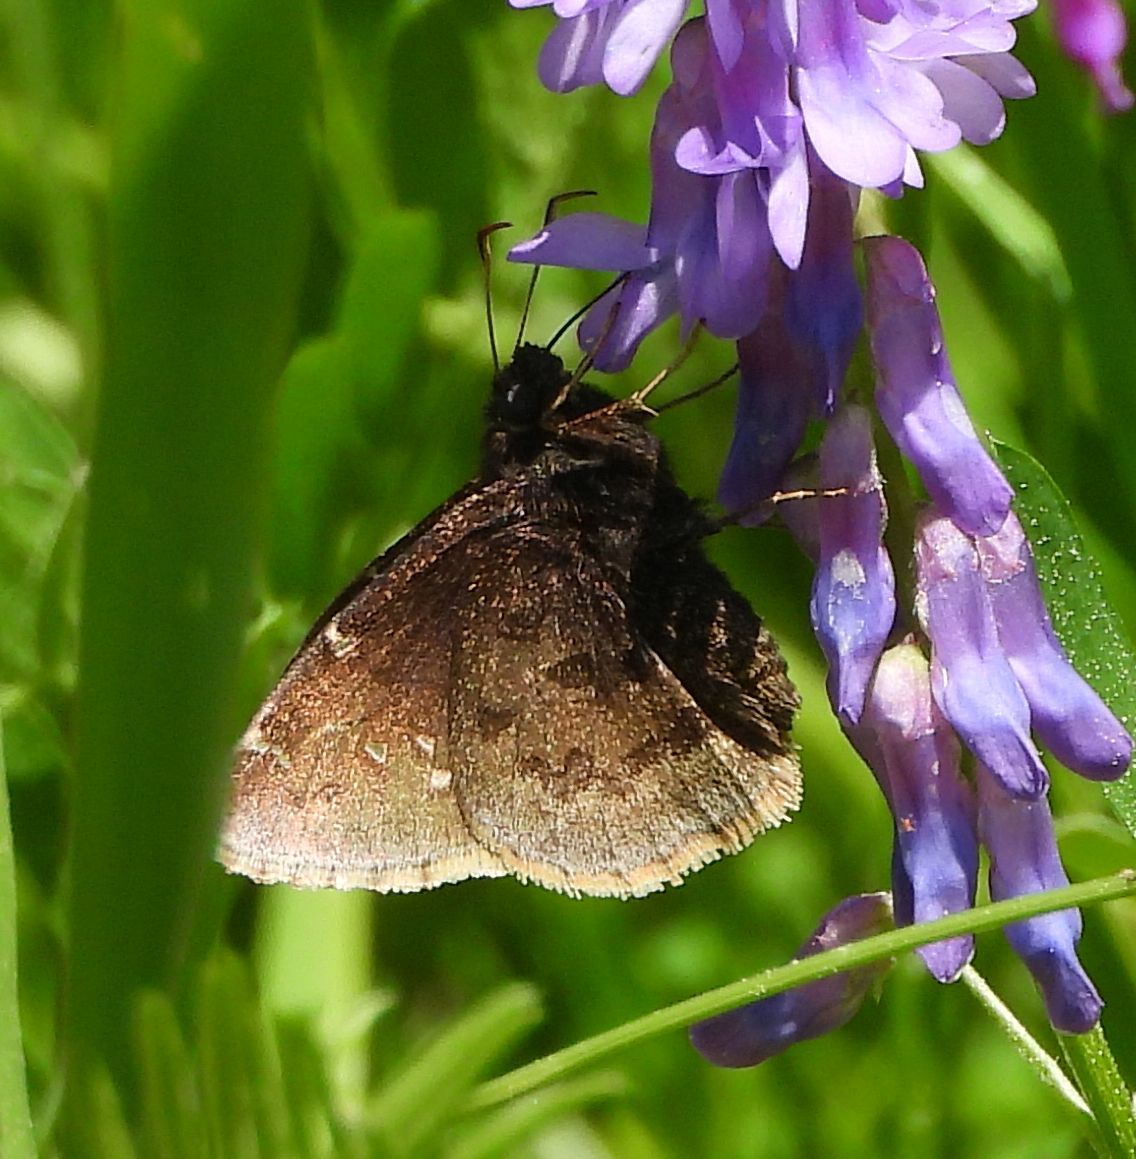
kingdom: Animalia
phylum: Arthropoda
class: Insecta
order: Lepidoptera
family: Hesperiidae
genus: Thorybes
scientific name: Thorybes pylades
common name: Northern cloudywing
